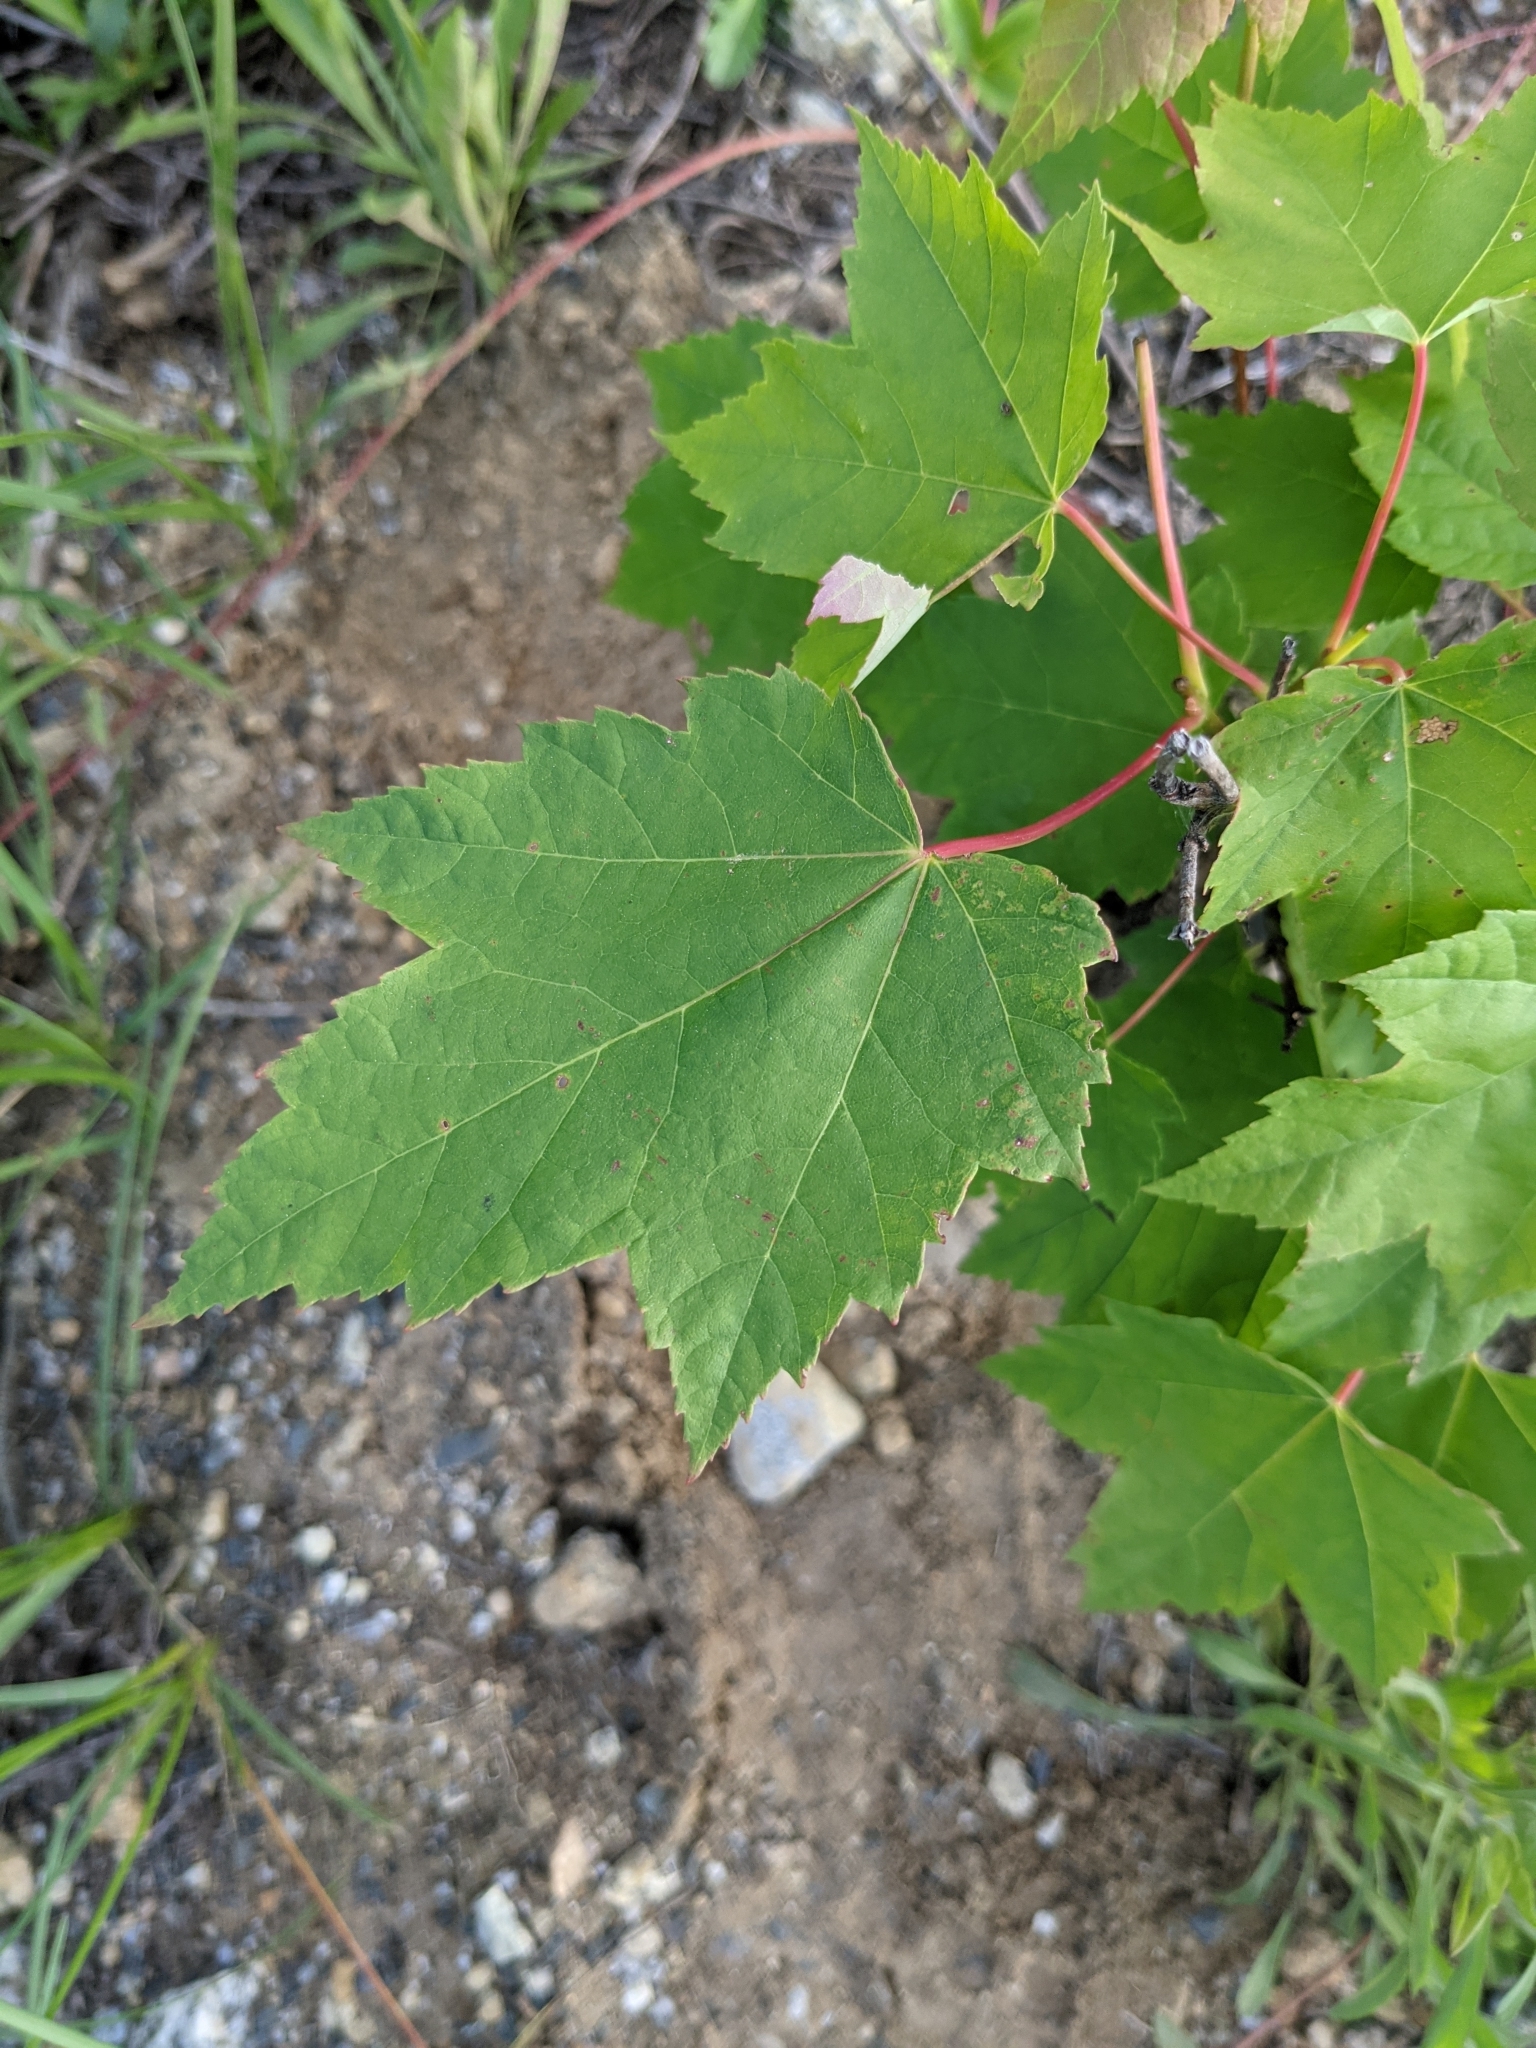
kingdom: Plantae
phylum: Tracheophyta
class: Magnoliopsida
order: Sapindales
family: Sapindaceae
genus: Acer
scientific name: Acer rubrum
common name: Red maple
